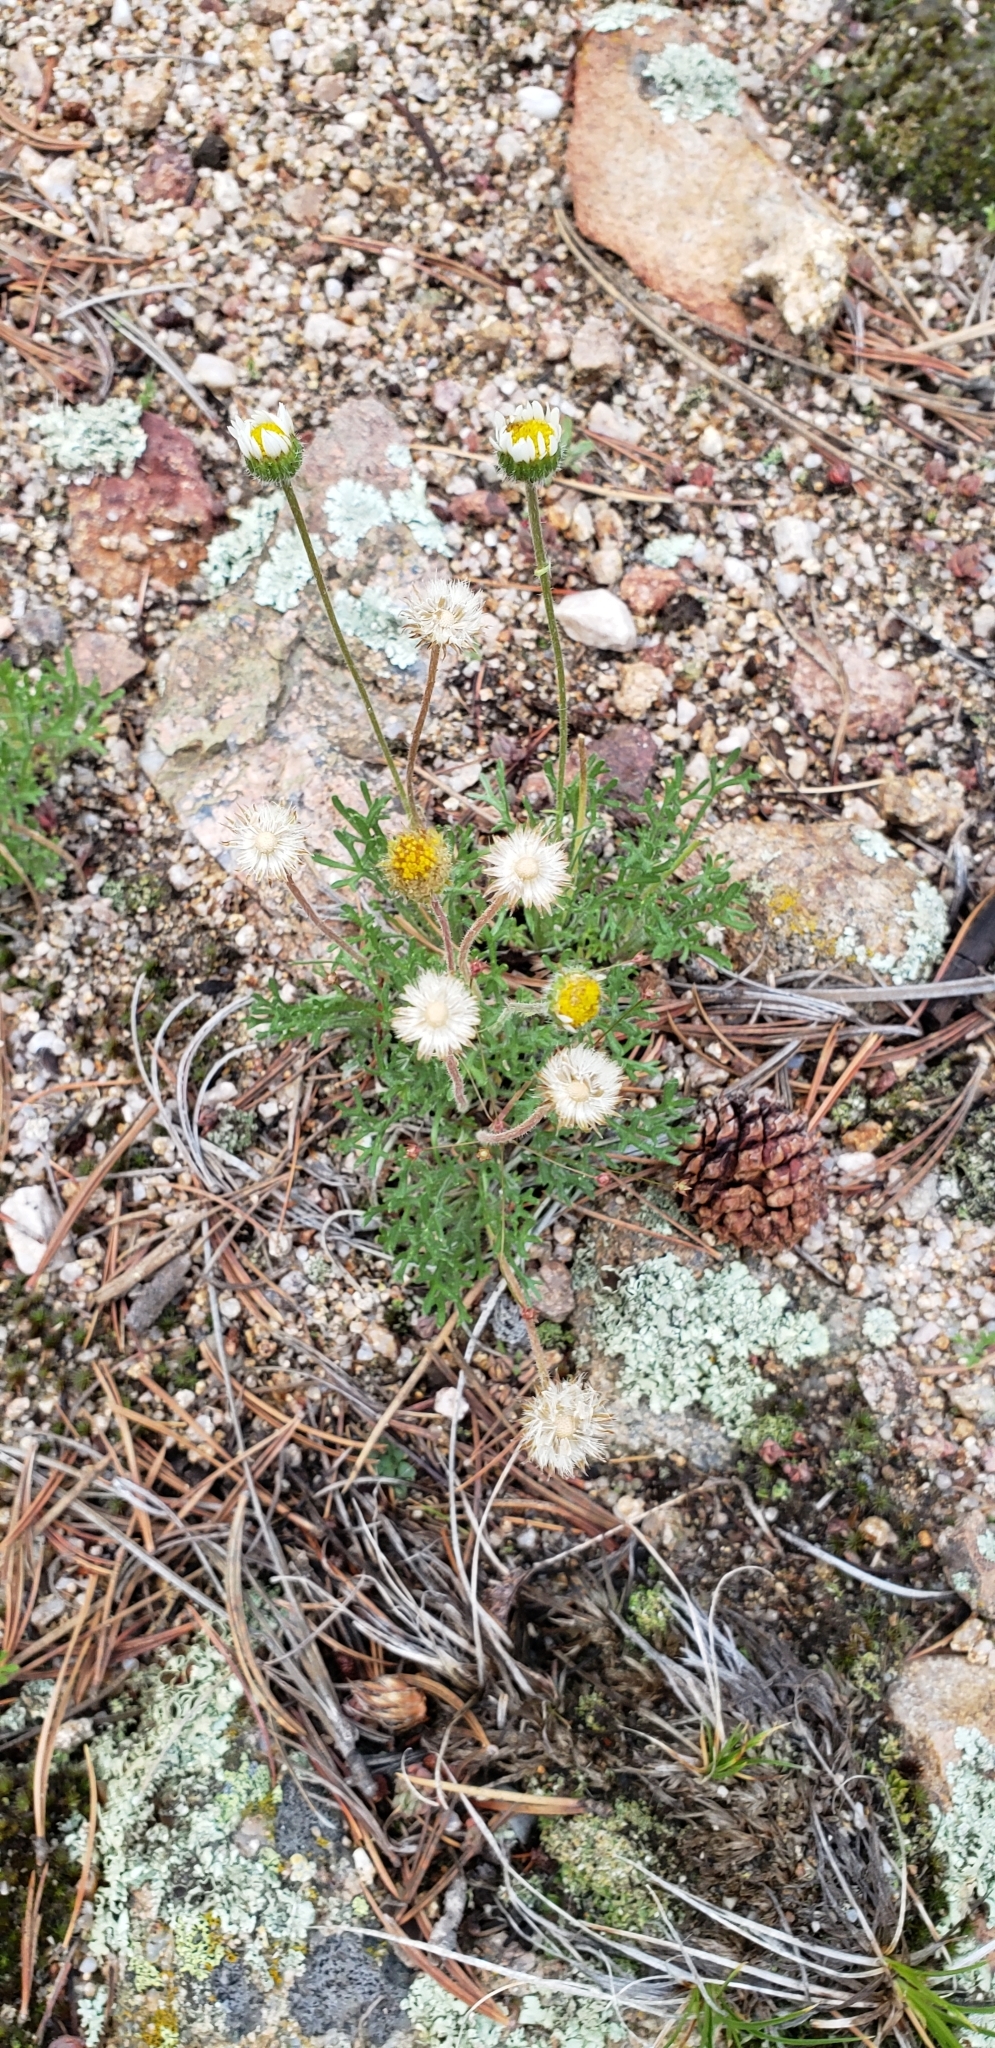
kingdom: Plantae
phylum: Tracheophyta
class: Magnoliopsida
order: Asterales
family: Asteraceae
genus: Erigeron
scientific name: Erigeron compositus
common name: Dwarf mountain fleabane
